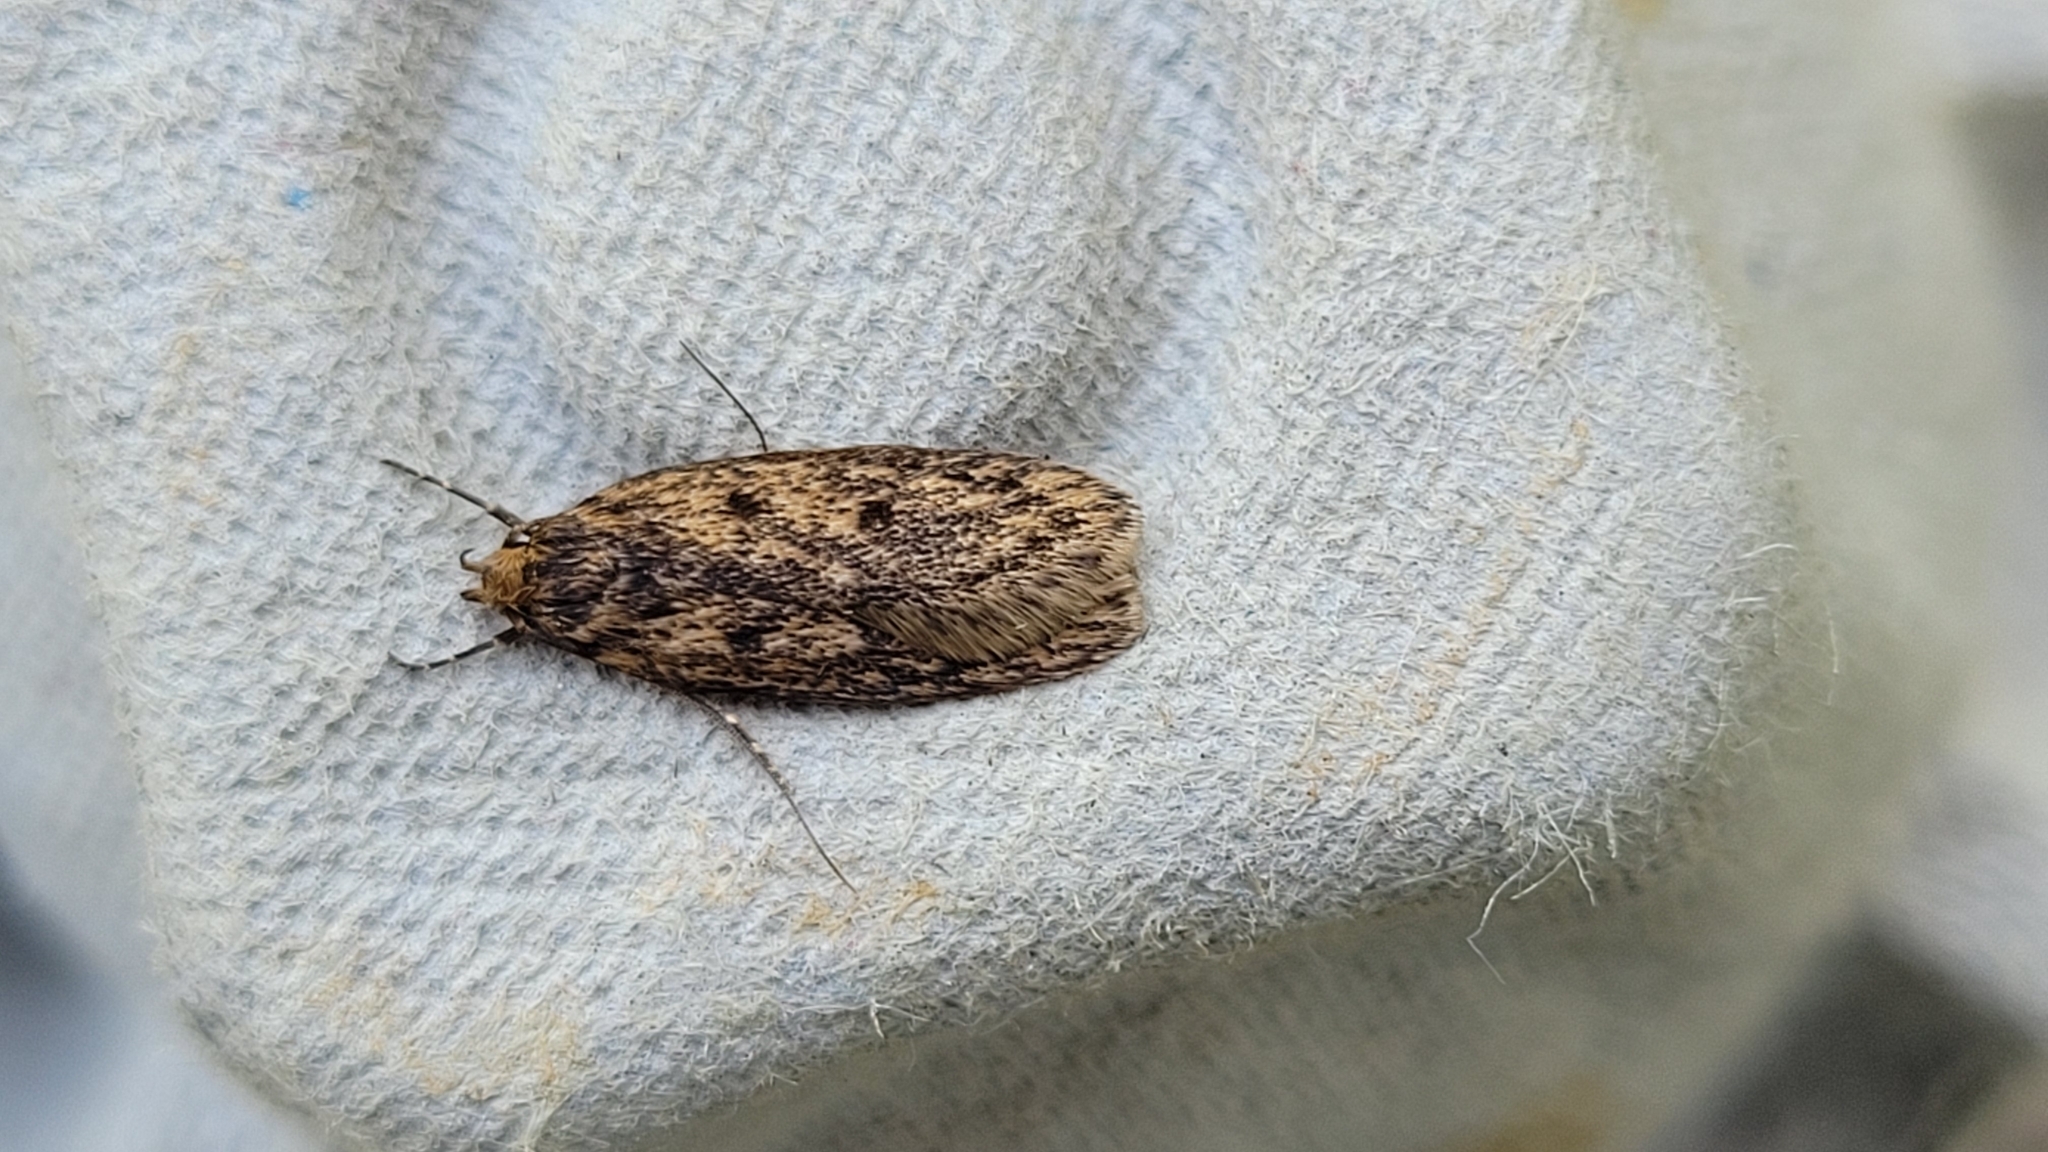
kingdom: Animalia
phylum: Arthropoda
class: Insecta
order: Lepidoptera
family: Oecophoridae
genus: Hofmannophila
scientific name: Hofmannophila pseudospretella
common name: Brown house moth
